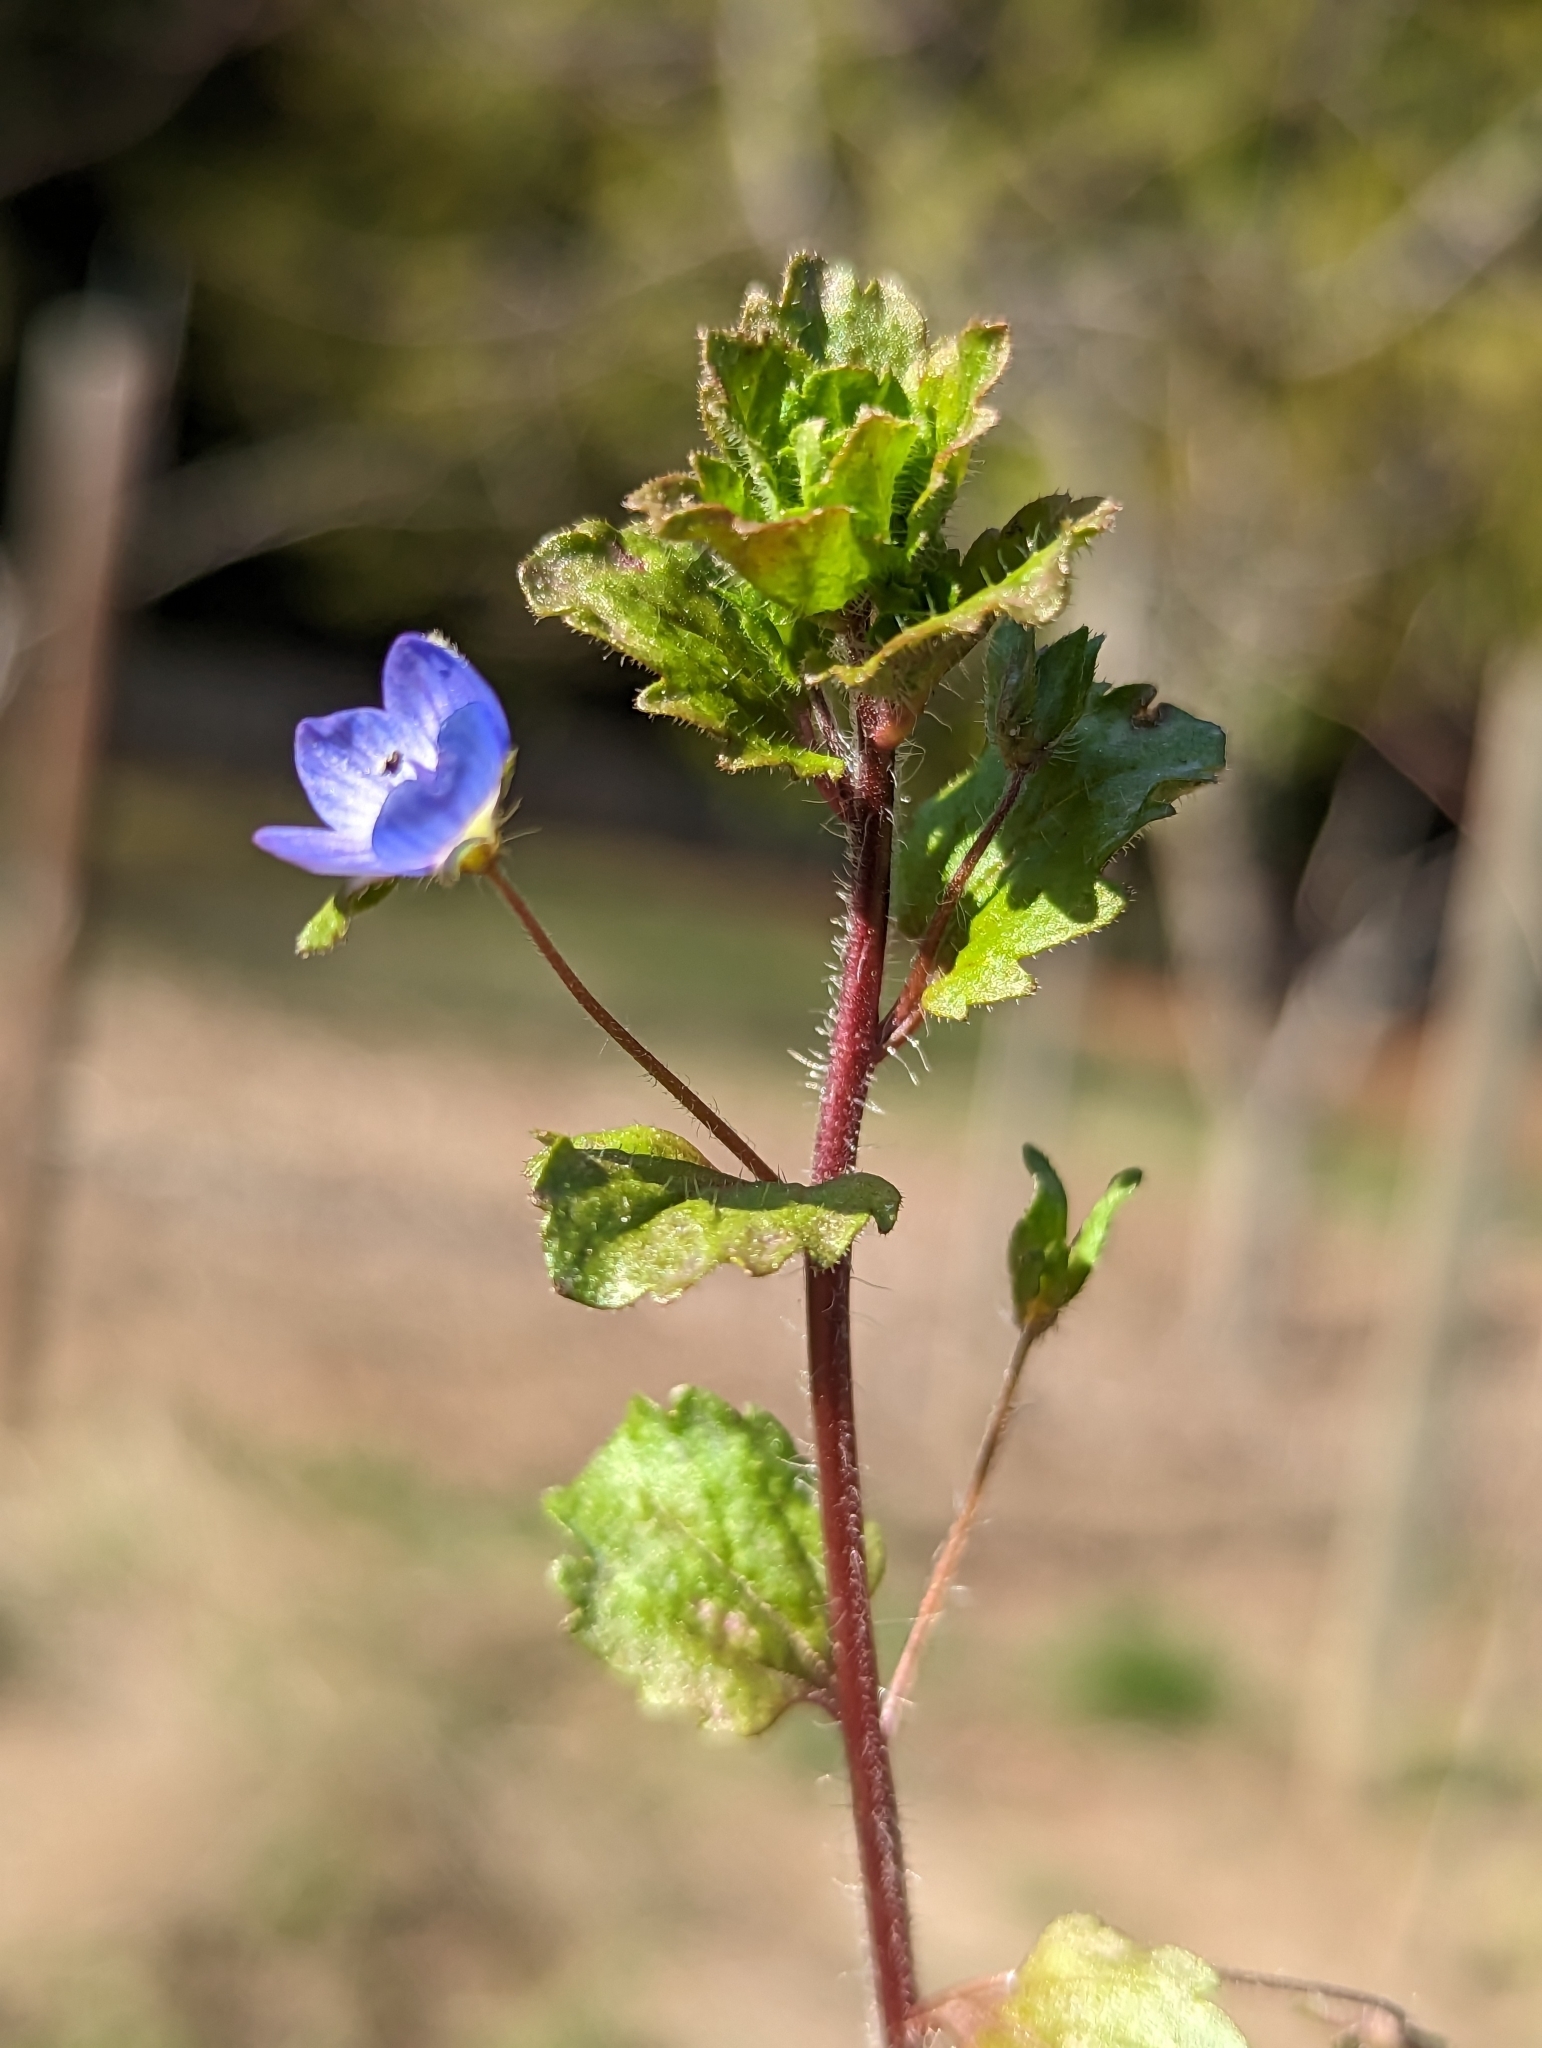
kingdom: Plantae
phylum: Tracheophyta
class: Magnoliopsida
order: Lamiales
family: Plantaginaceae
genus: Veronica
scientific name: Veronica persica
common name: Common field-speedwell
